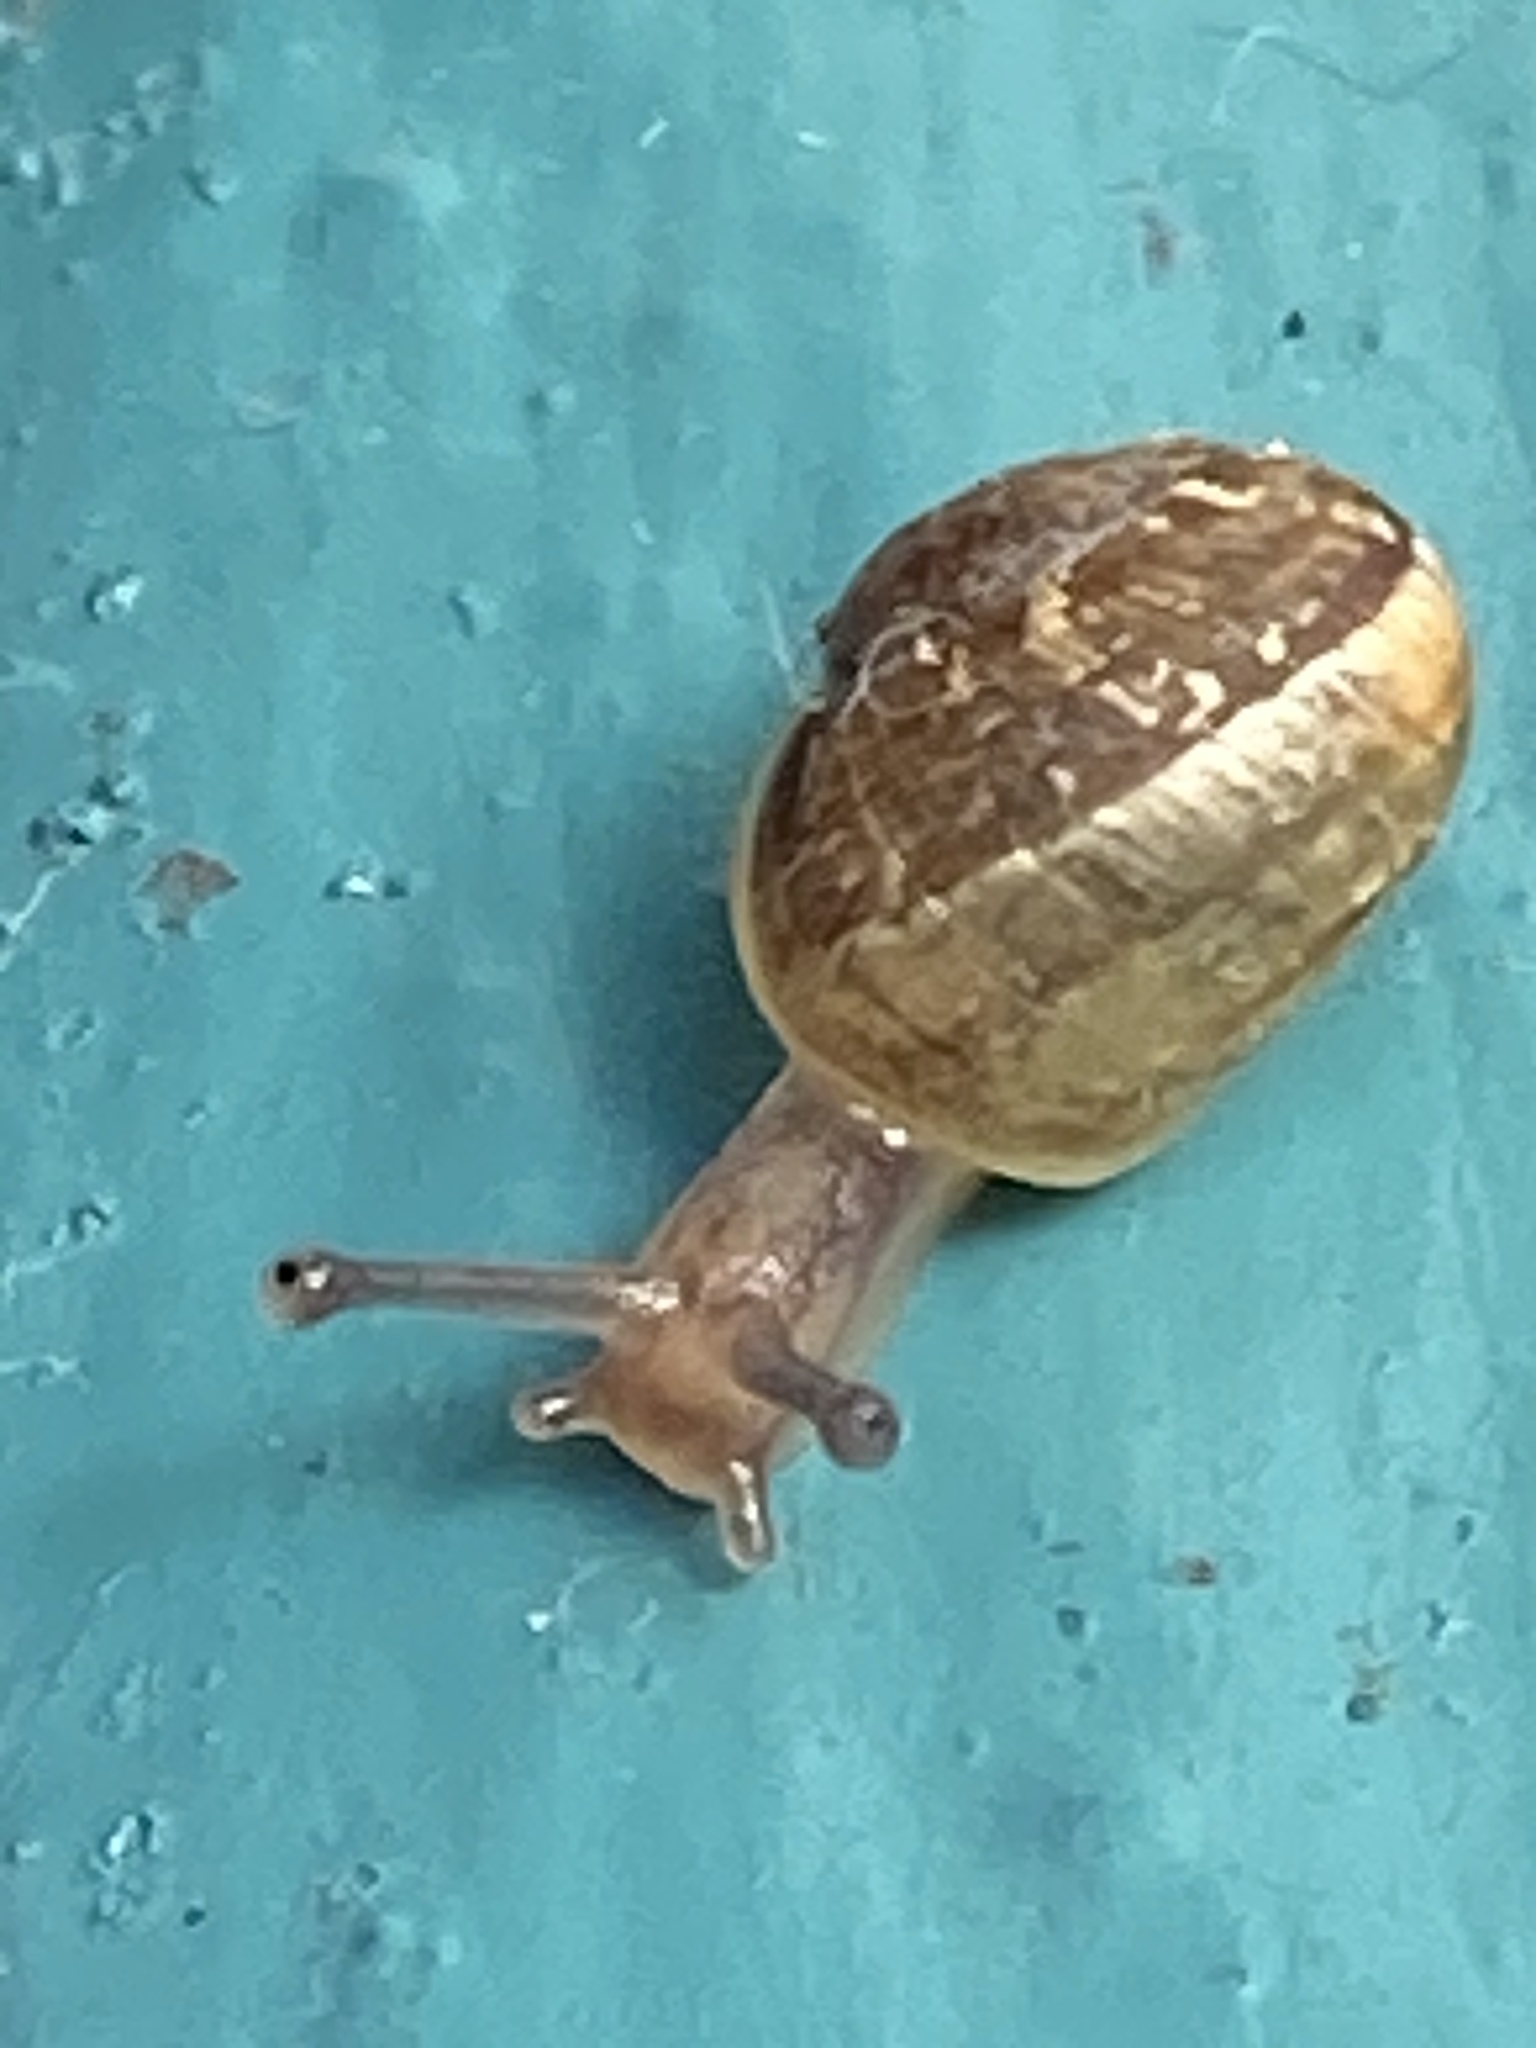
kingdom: Animalia
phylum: Mollusca
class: Gastropoda
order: Stylommatophora
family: Helicidae
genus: Cornu
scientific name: Cornu aspersum
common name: Brown garden snail
